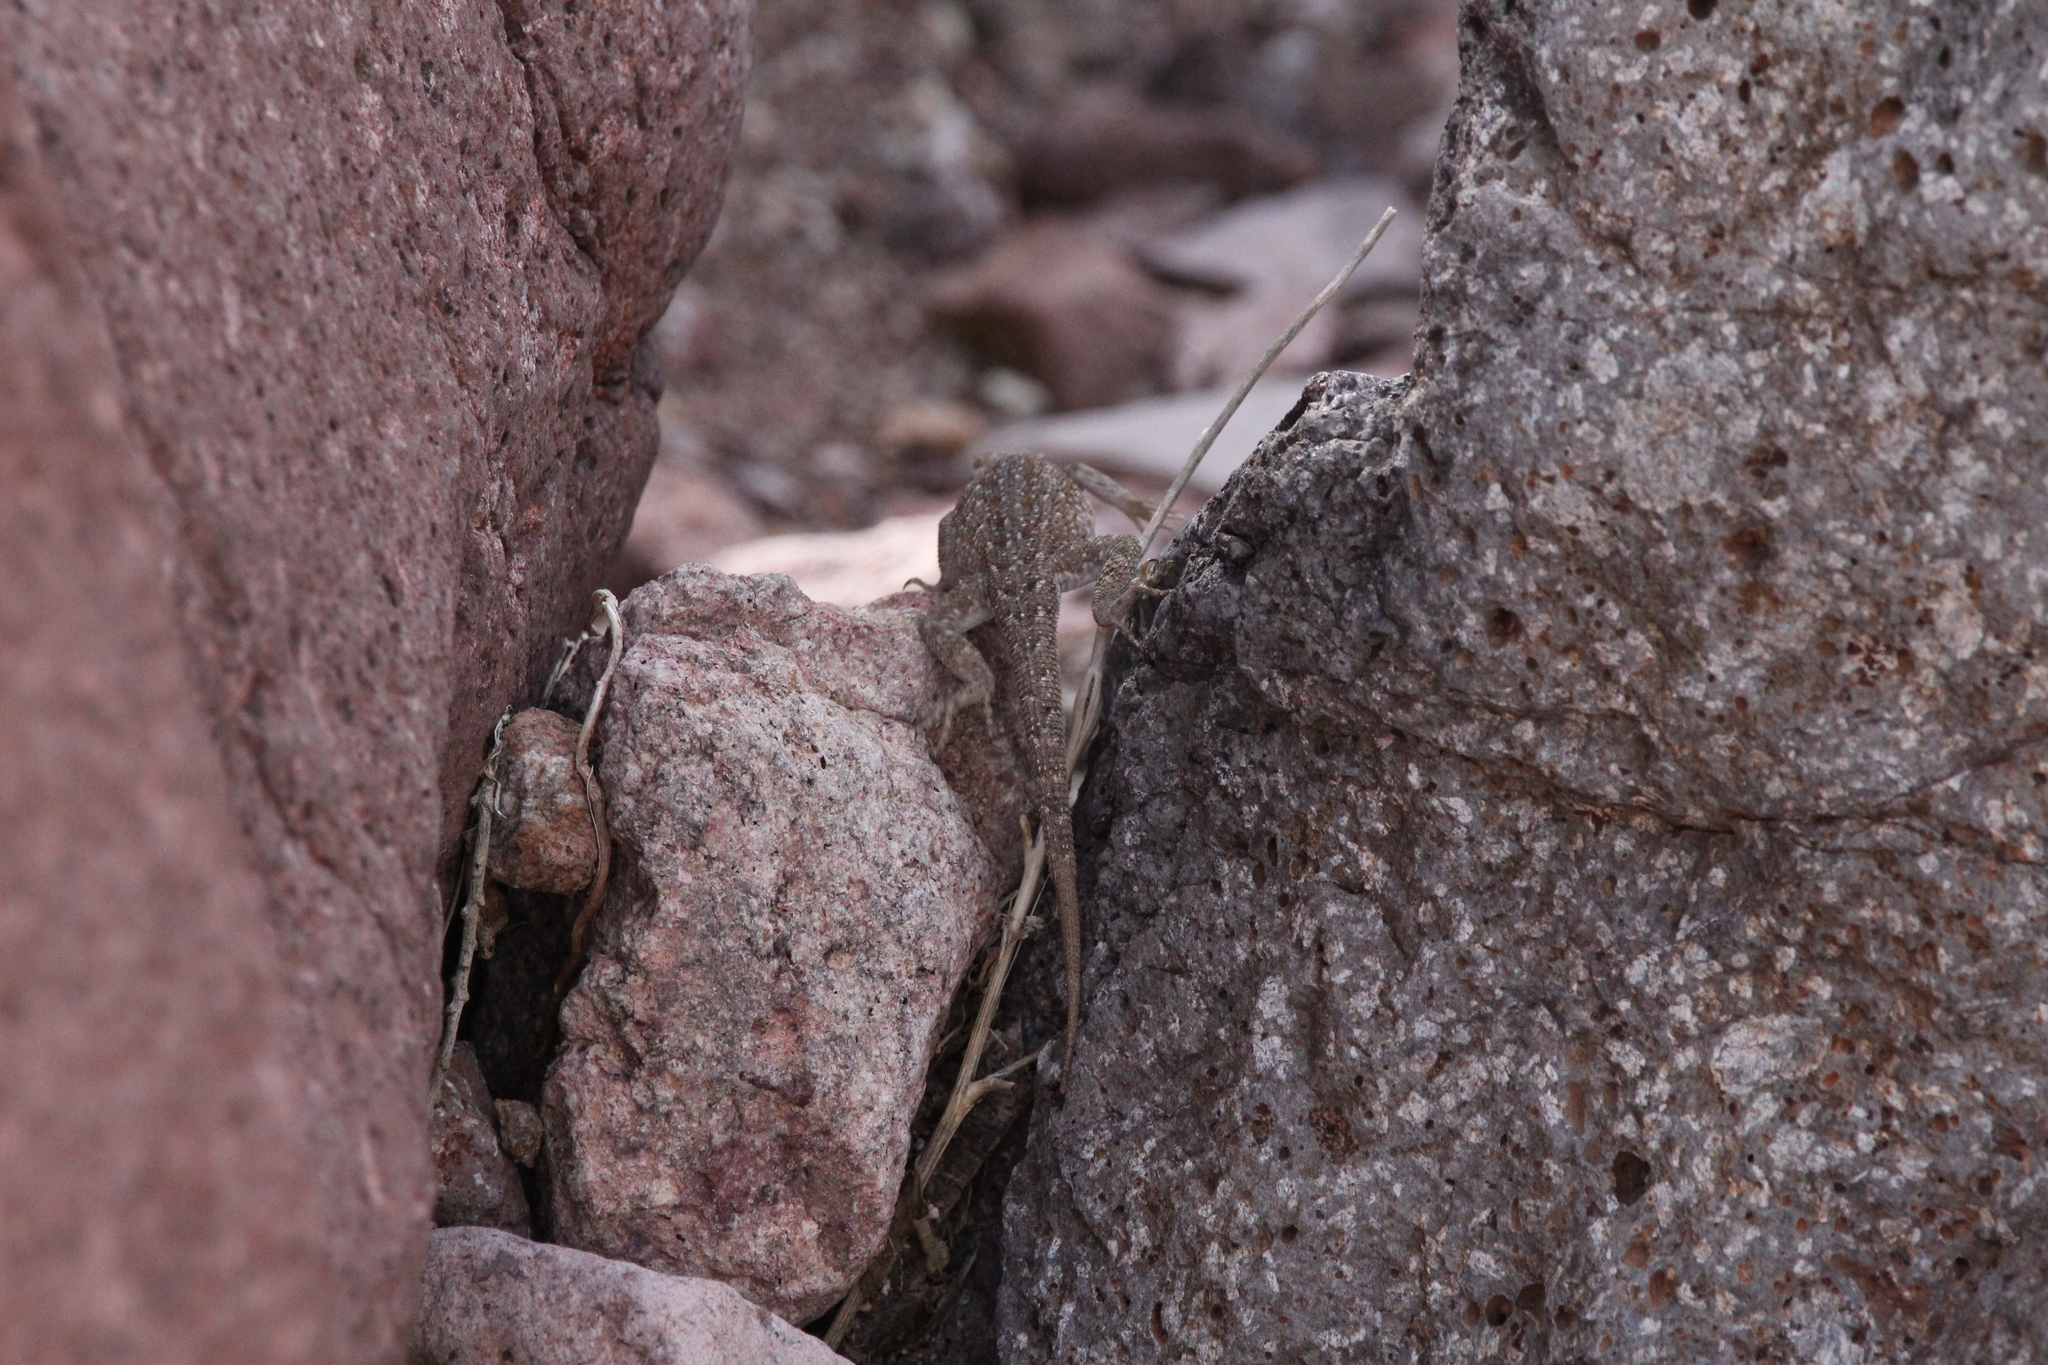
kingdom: Animalia
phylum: Chordata
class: Squamata
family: Phrynosomatidae
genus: Uta
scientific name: Uta stansburiana
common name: Side-blotched lizard
